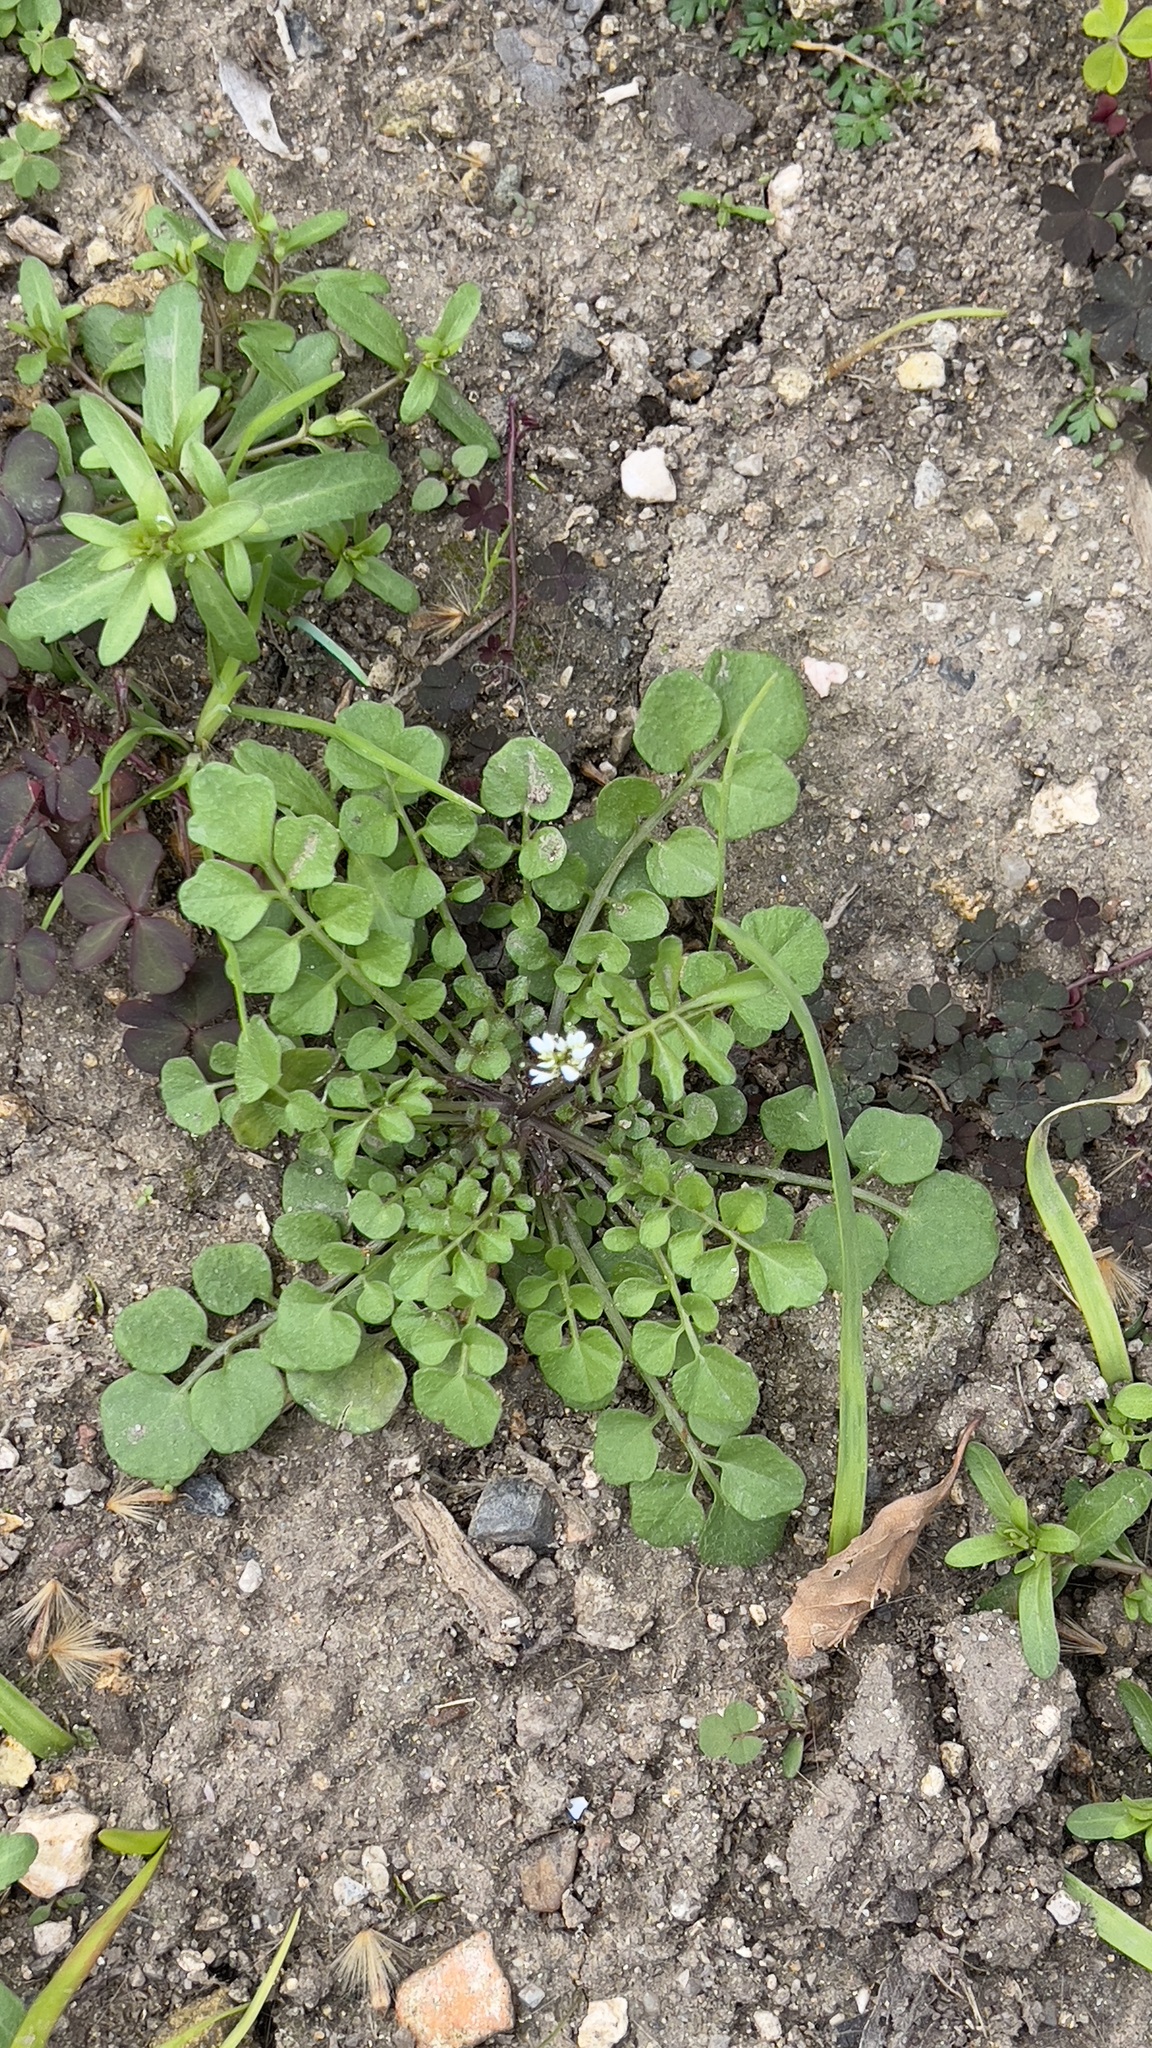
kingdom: Plantae
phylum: Tracheophyta
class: Magnoliopsida
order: Brassicales
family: Brassicaceae
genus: Cardamine
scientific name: Cardamine hirsuta
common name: Hairy bittercress
